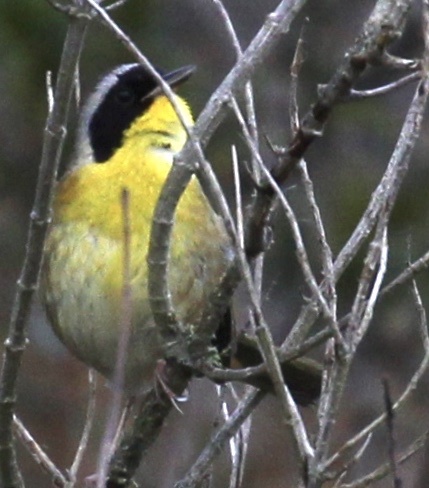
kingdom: Animalia
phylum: Chordata
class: Aves
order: Passeriformes
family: Parulidae
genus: Geothlypis
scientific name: Geothlypis trichas
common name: Common yellowthroat
